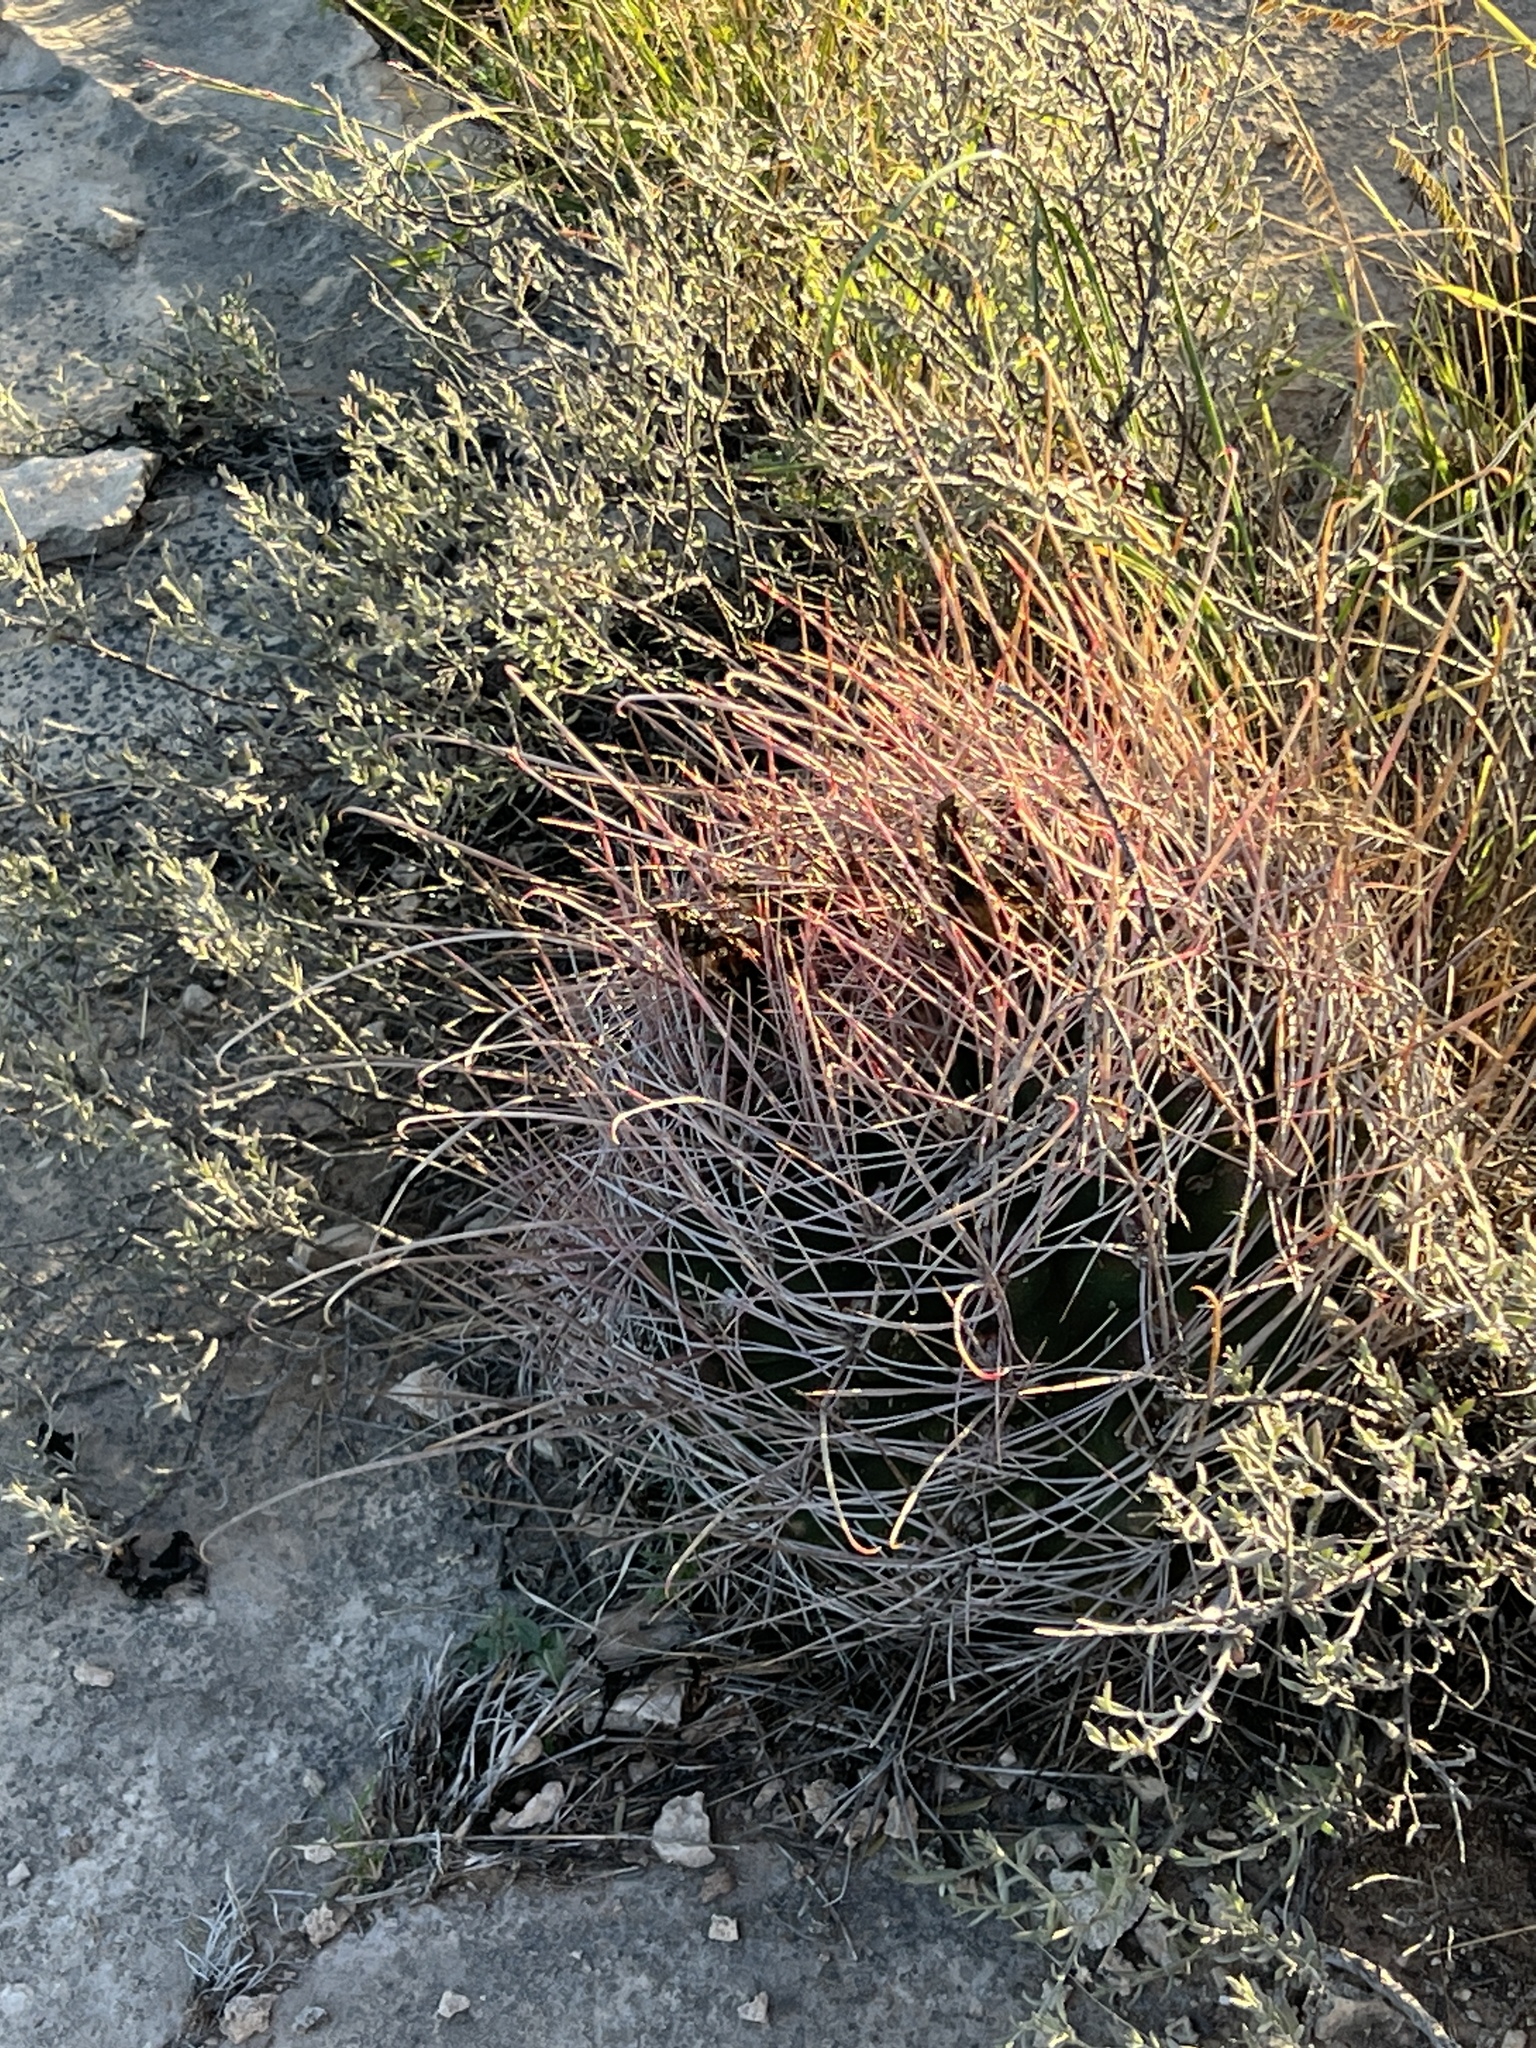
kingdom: Plantae
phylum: Tracheophyta
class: Magnoliopsida
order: Caryophyllales
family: Cactaceae
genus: Bisnaga
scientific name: Bisnaga hamatacantha
